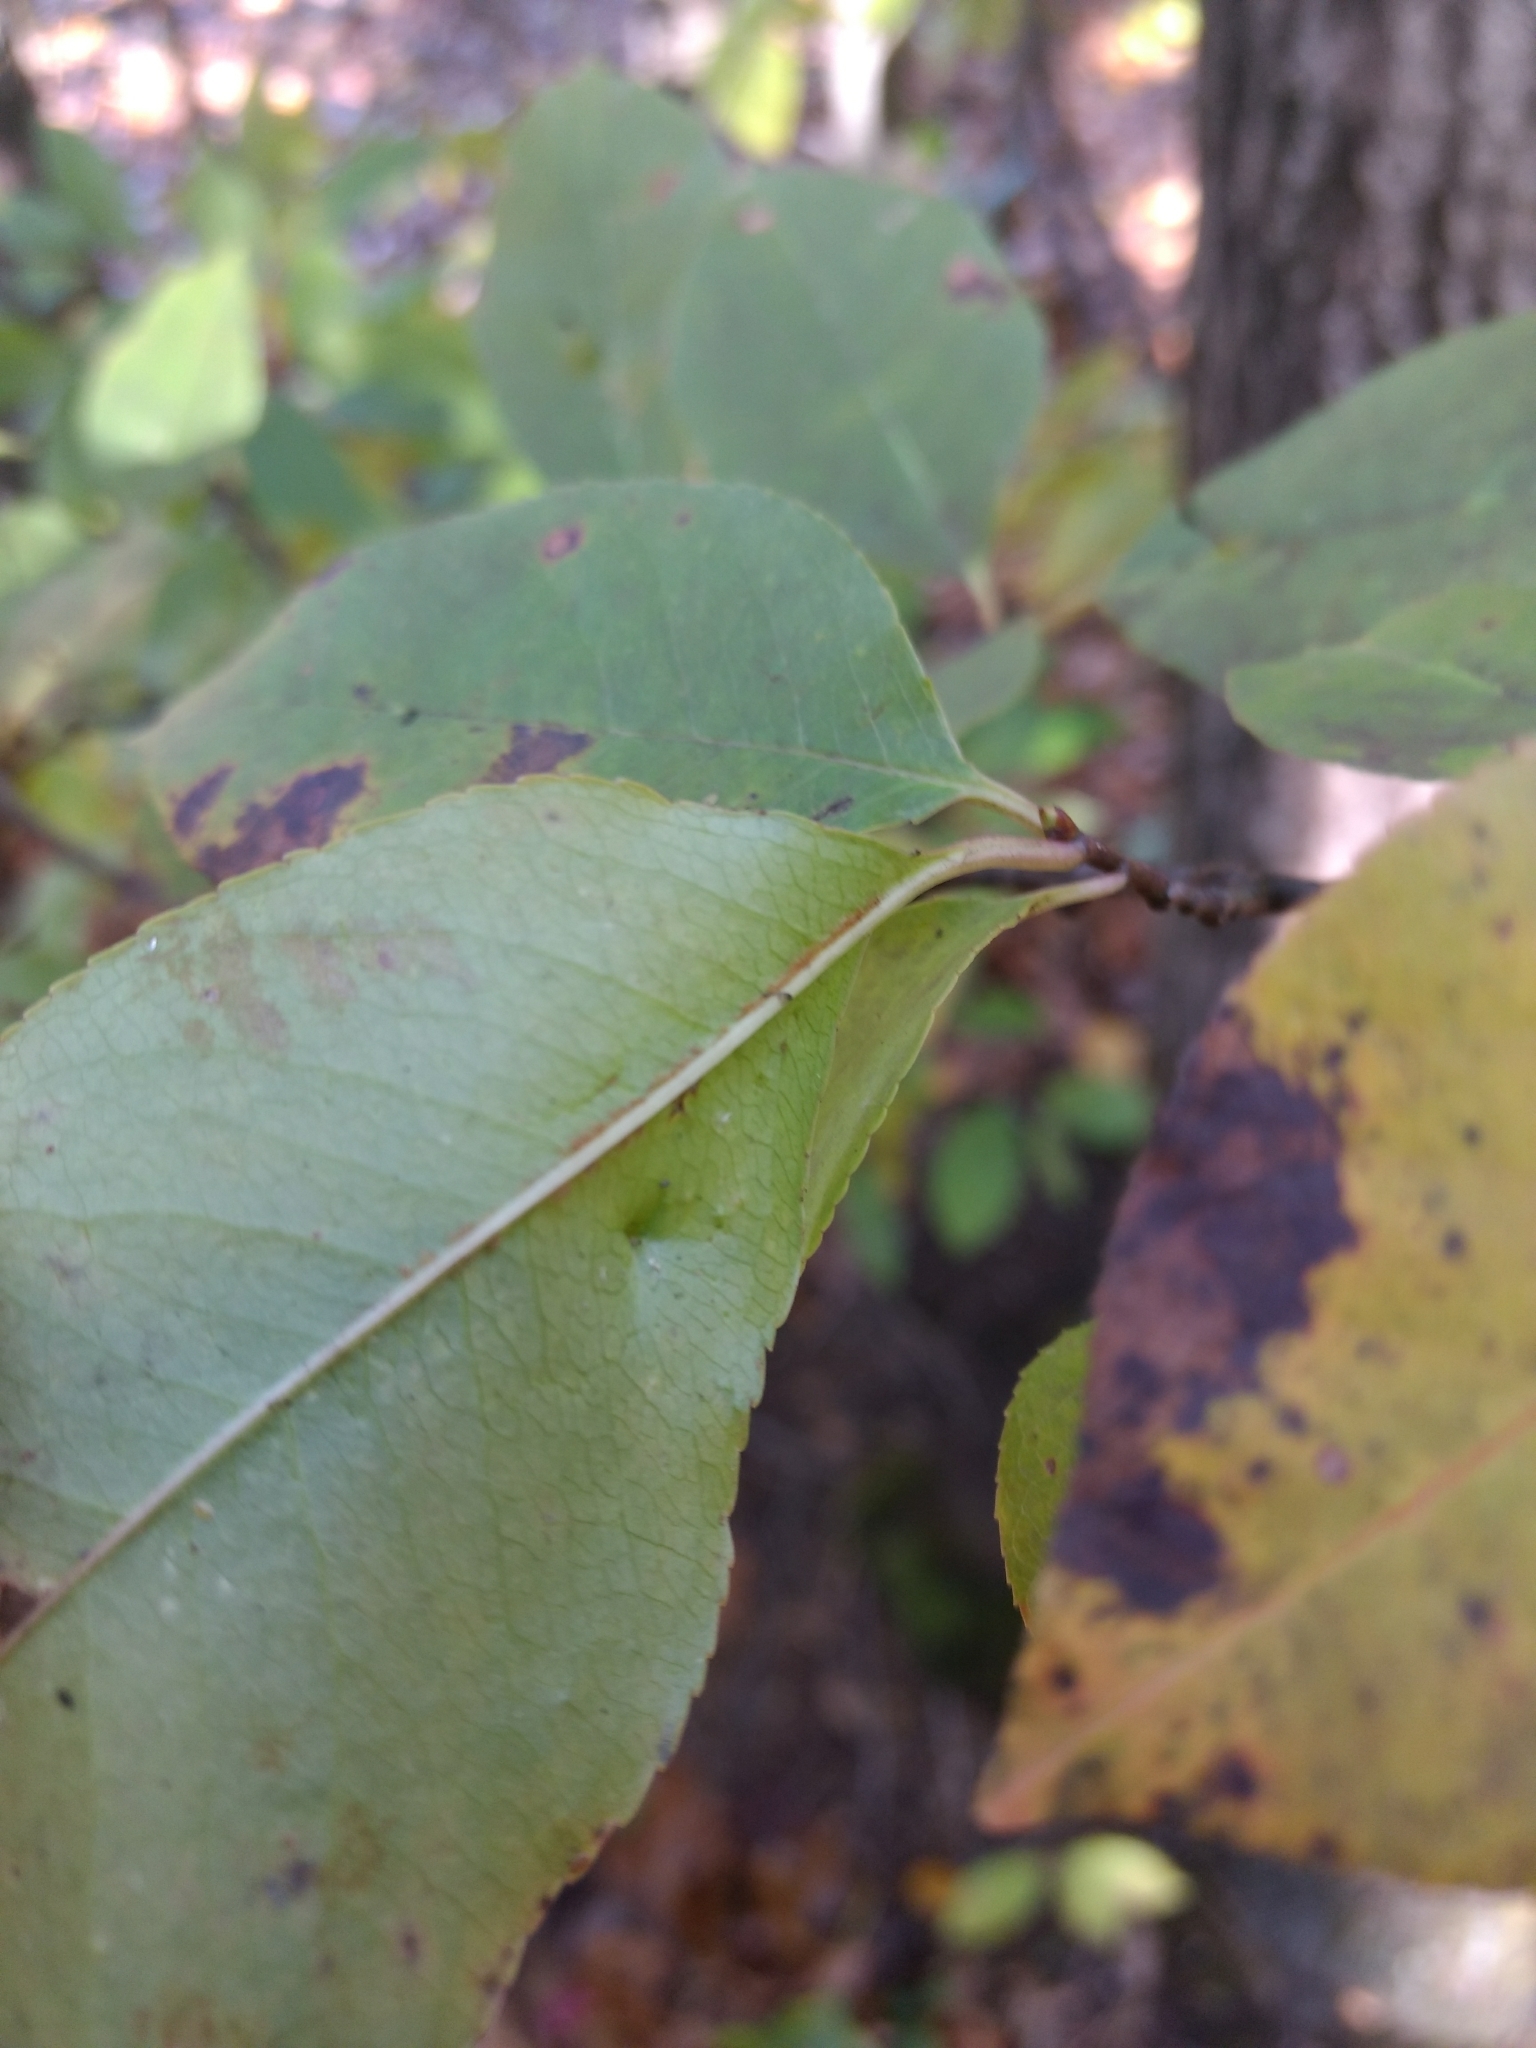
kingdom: Plantae
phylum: Tracheophyta
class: Magnoliopsida
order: Rosales
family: Rosaceae
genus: Prunus
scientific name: Prunus serotina
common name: Black cherry
